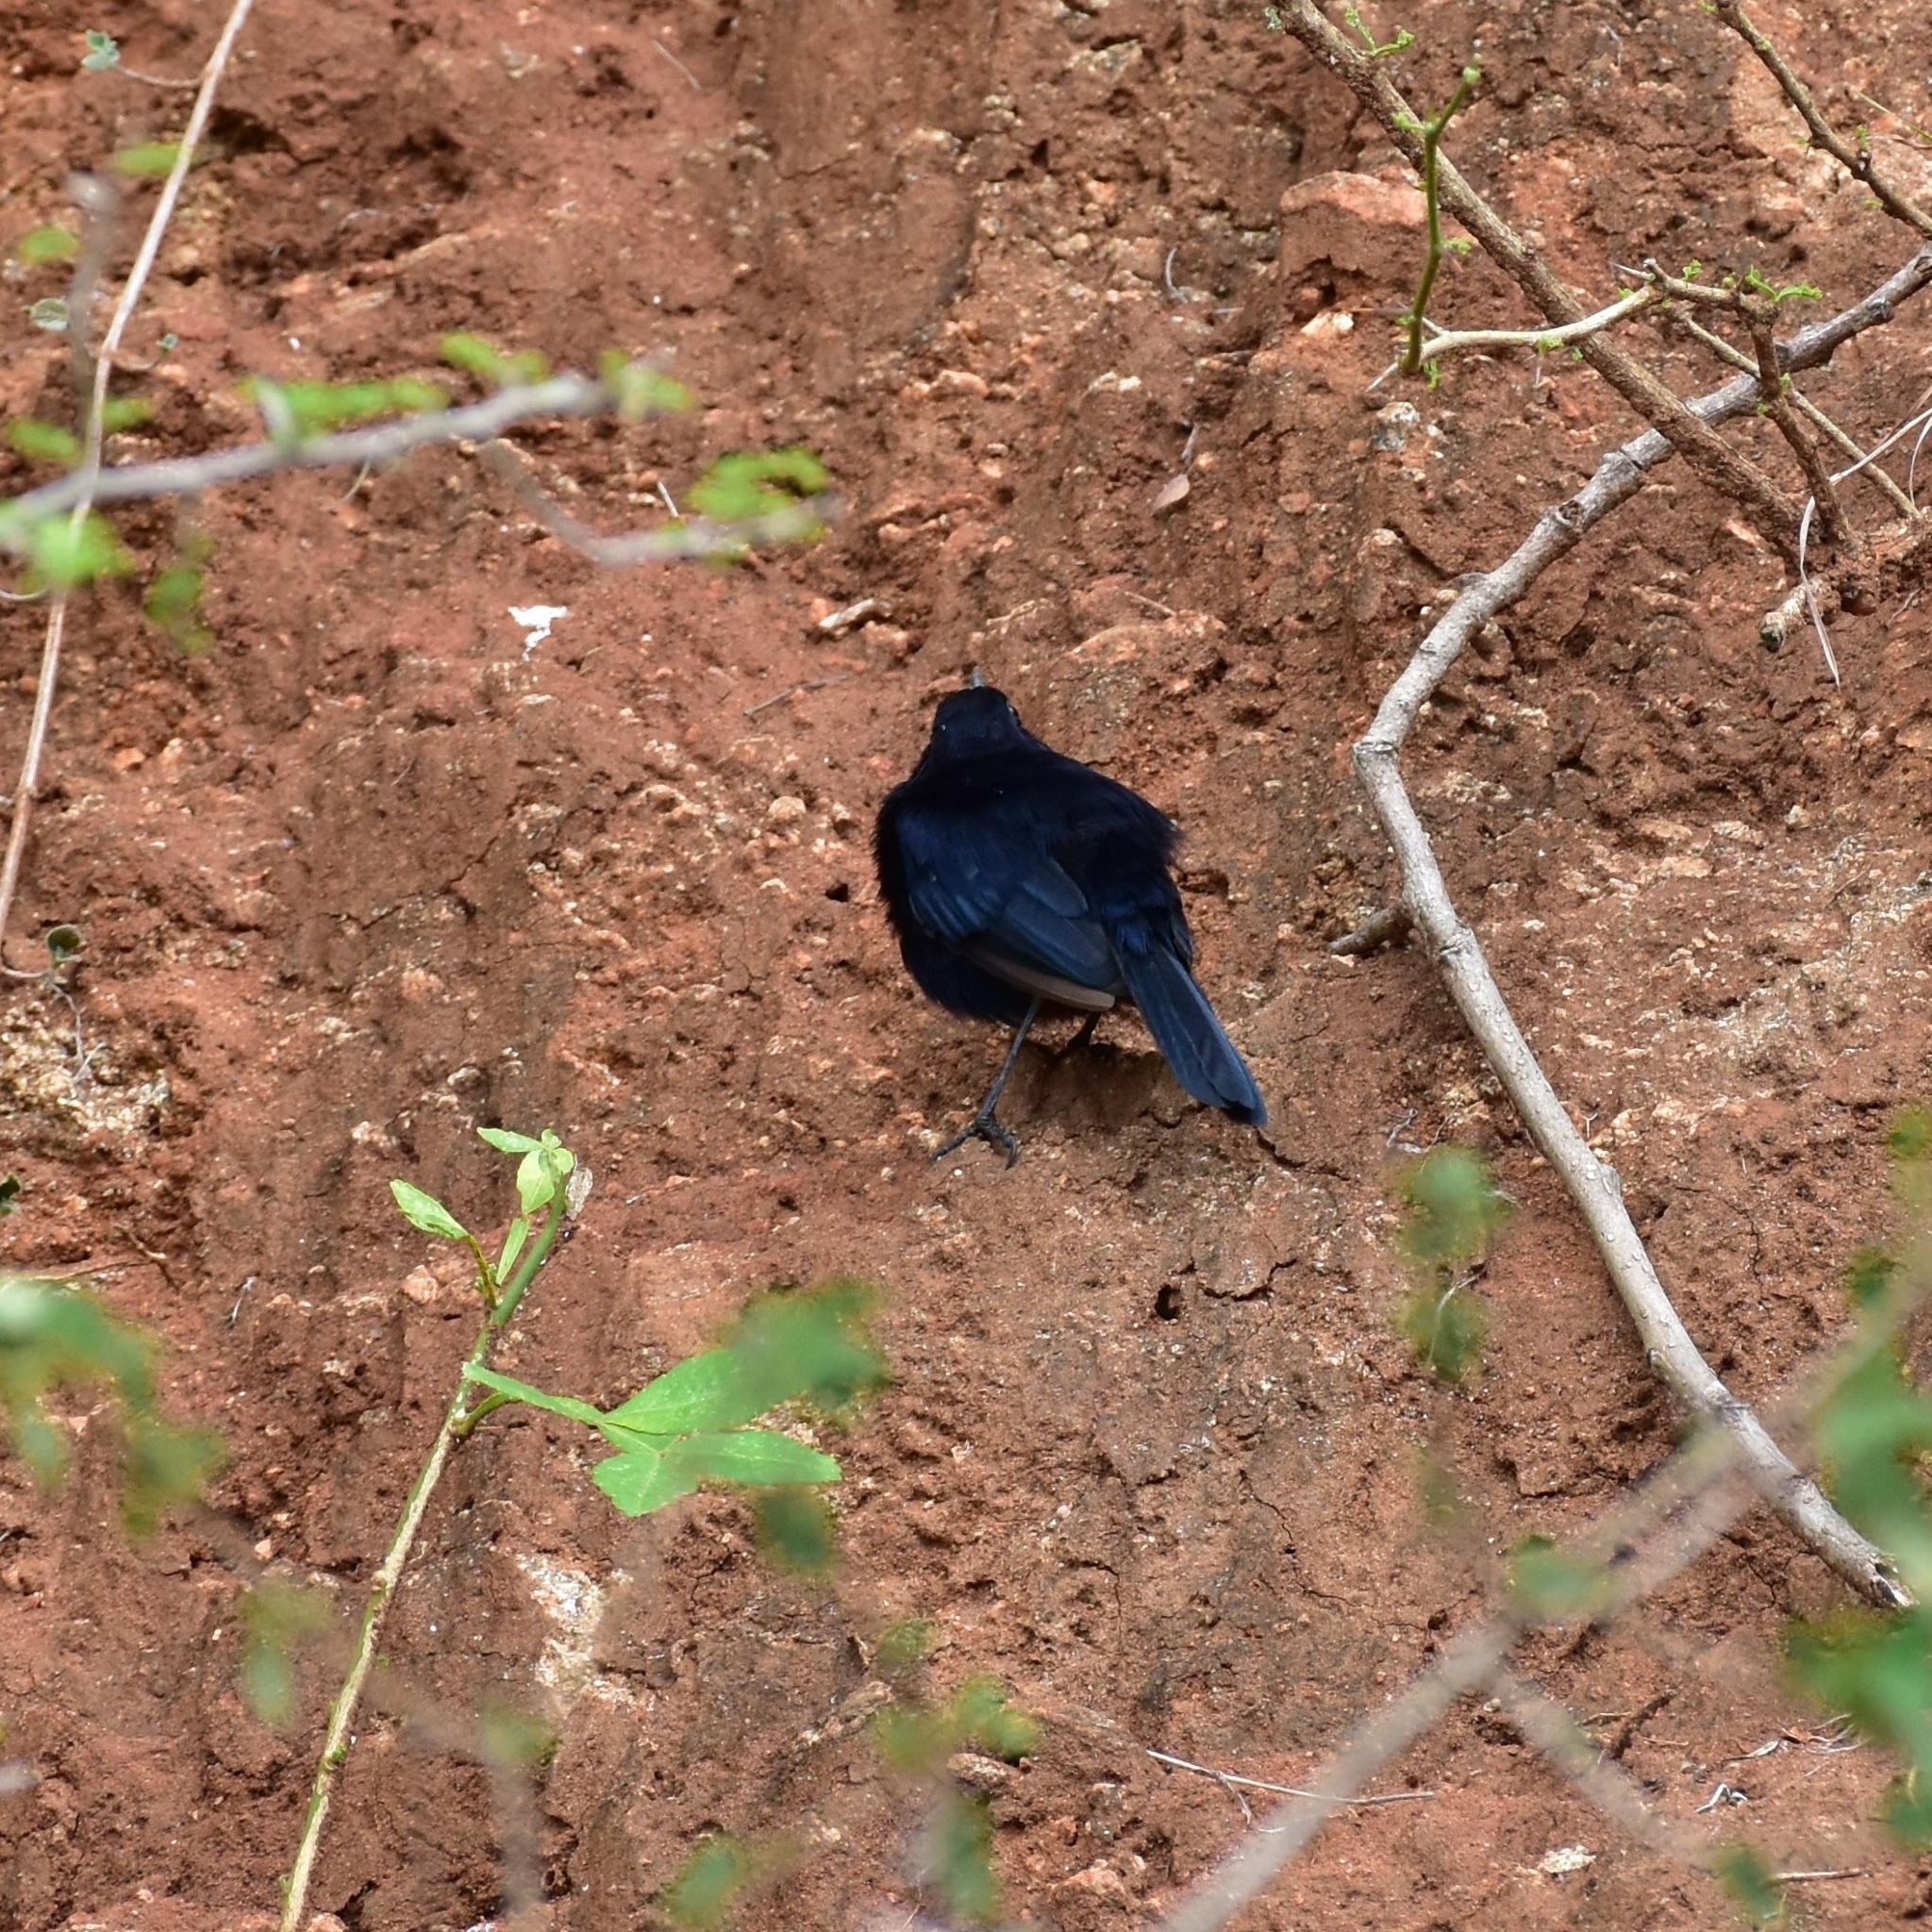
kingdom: Animalia
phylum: Chordata
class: Aves
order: Passeriformes
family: Muscicapidae
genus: Saxicoloides
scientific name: Saxicoloides fulicatus
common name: Indian robin
